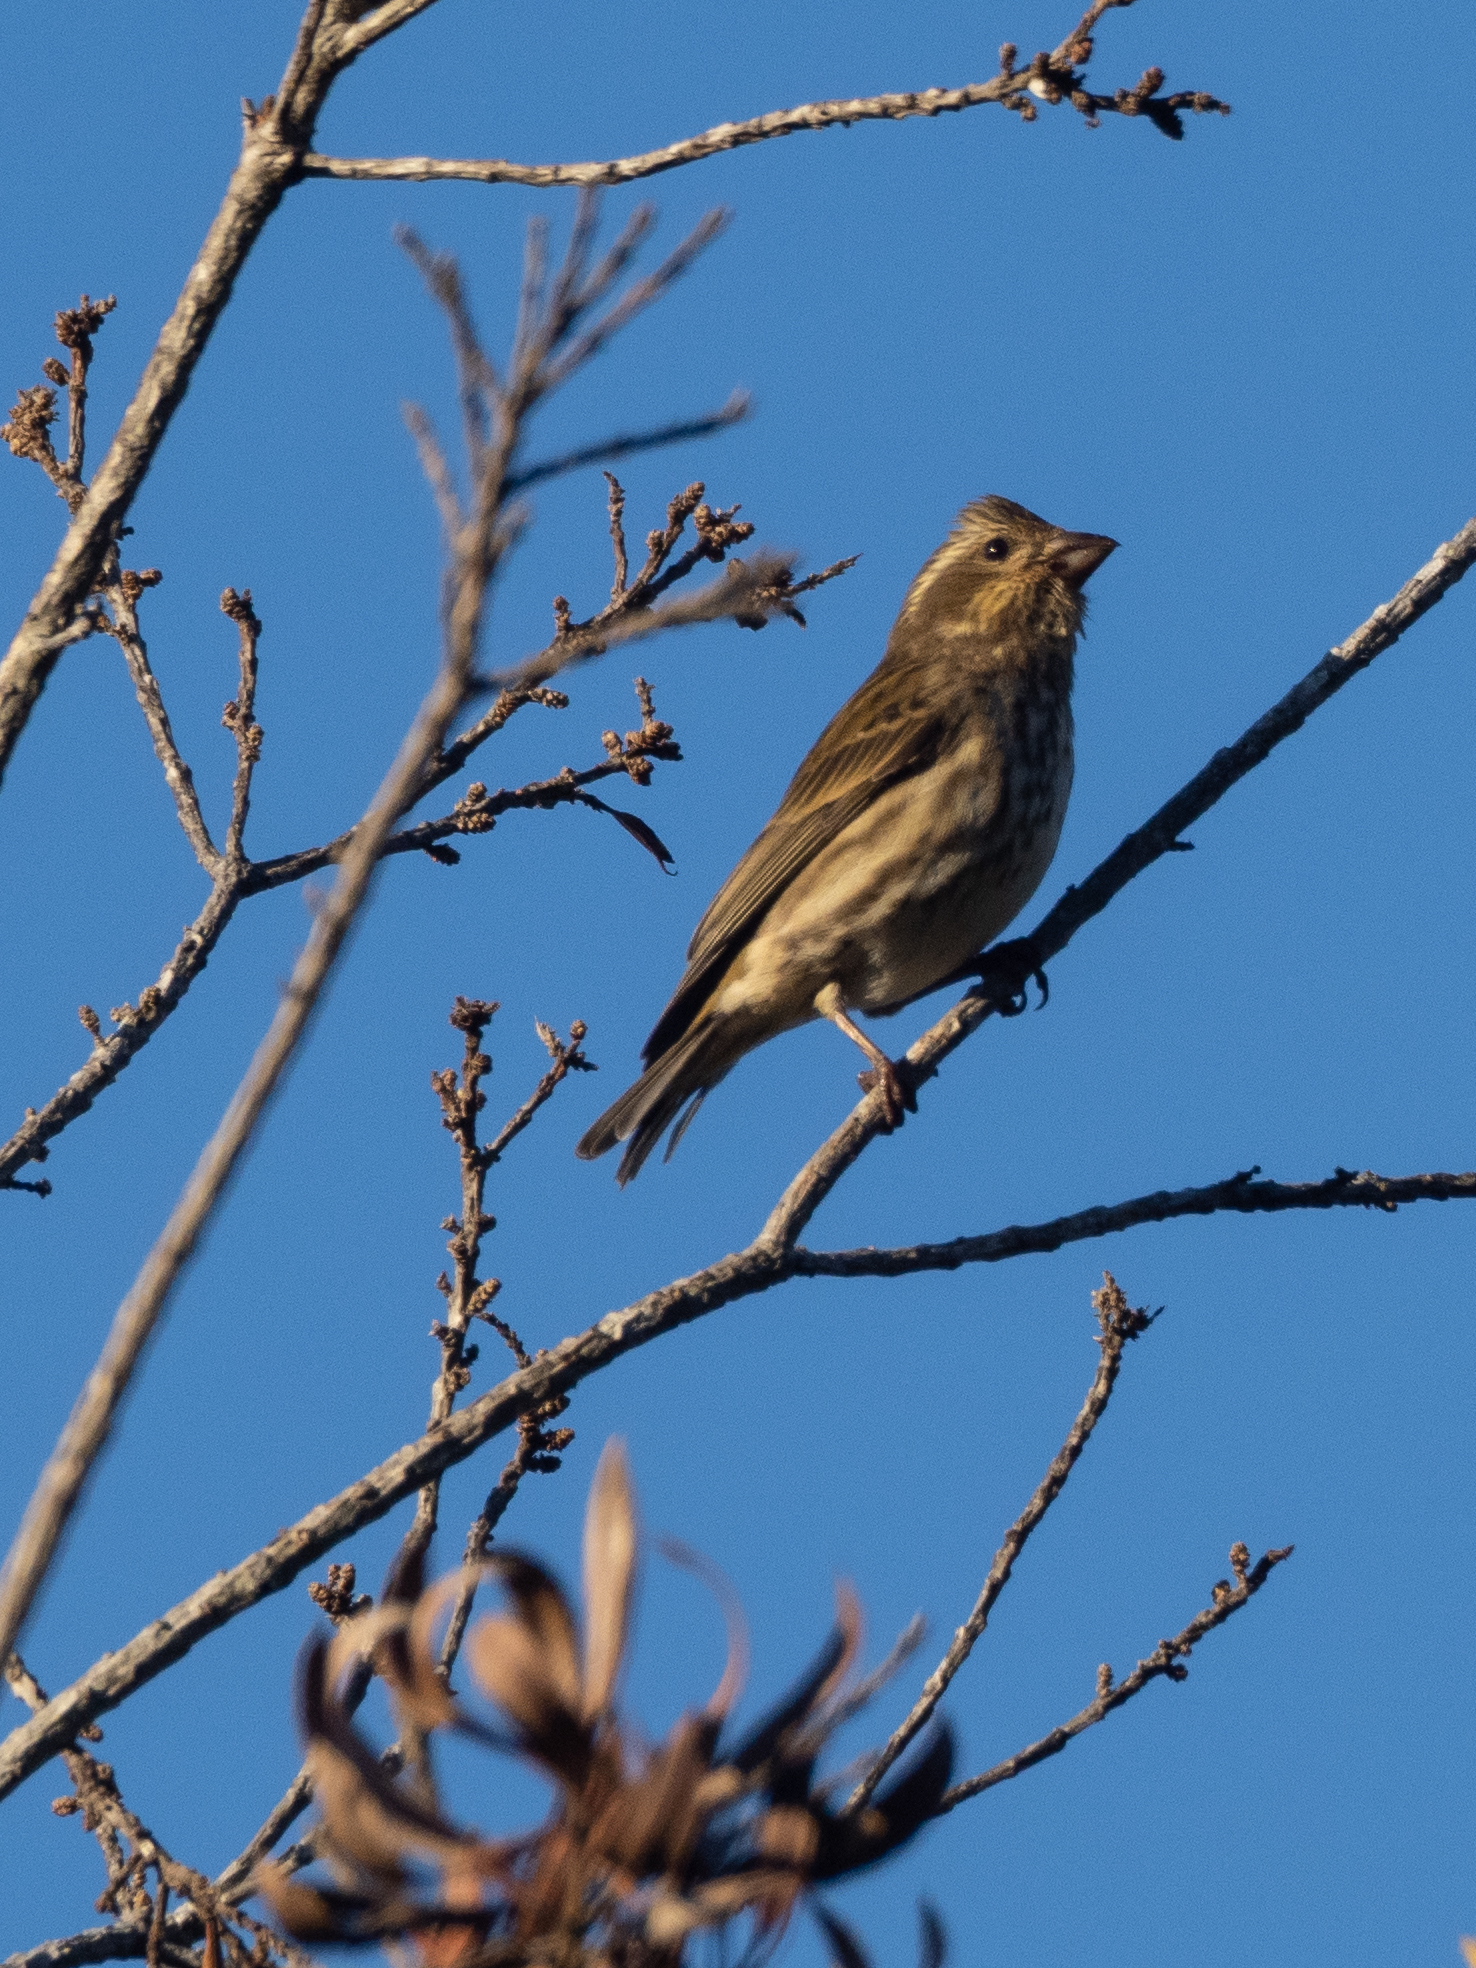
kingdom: Animalia
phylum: Chordata
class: Aves
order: Passeriformes
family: Fringillidae
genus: Haemorhous
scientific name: Haemorhous purpureus
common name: Purple finch
